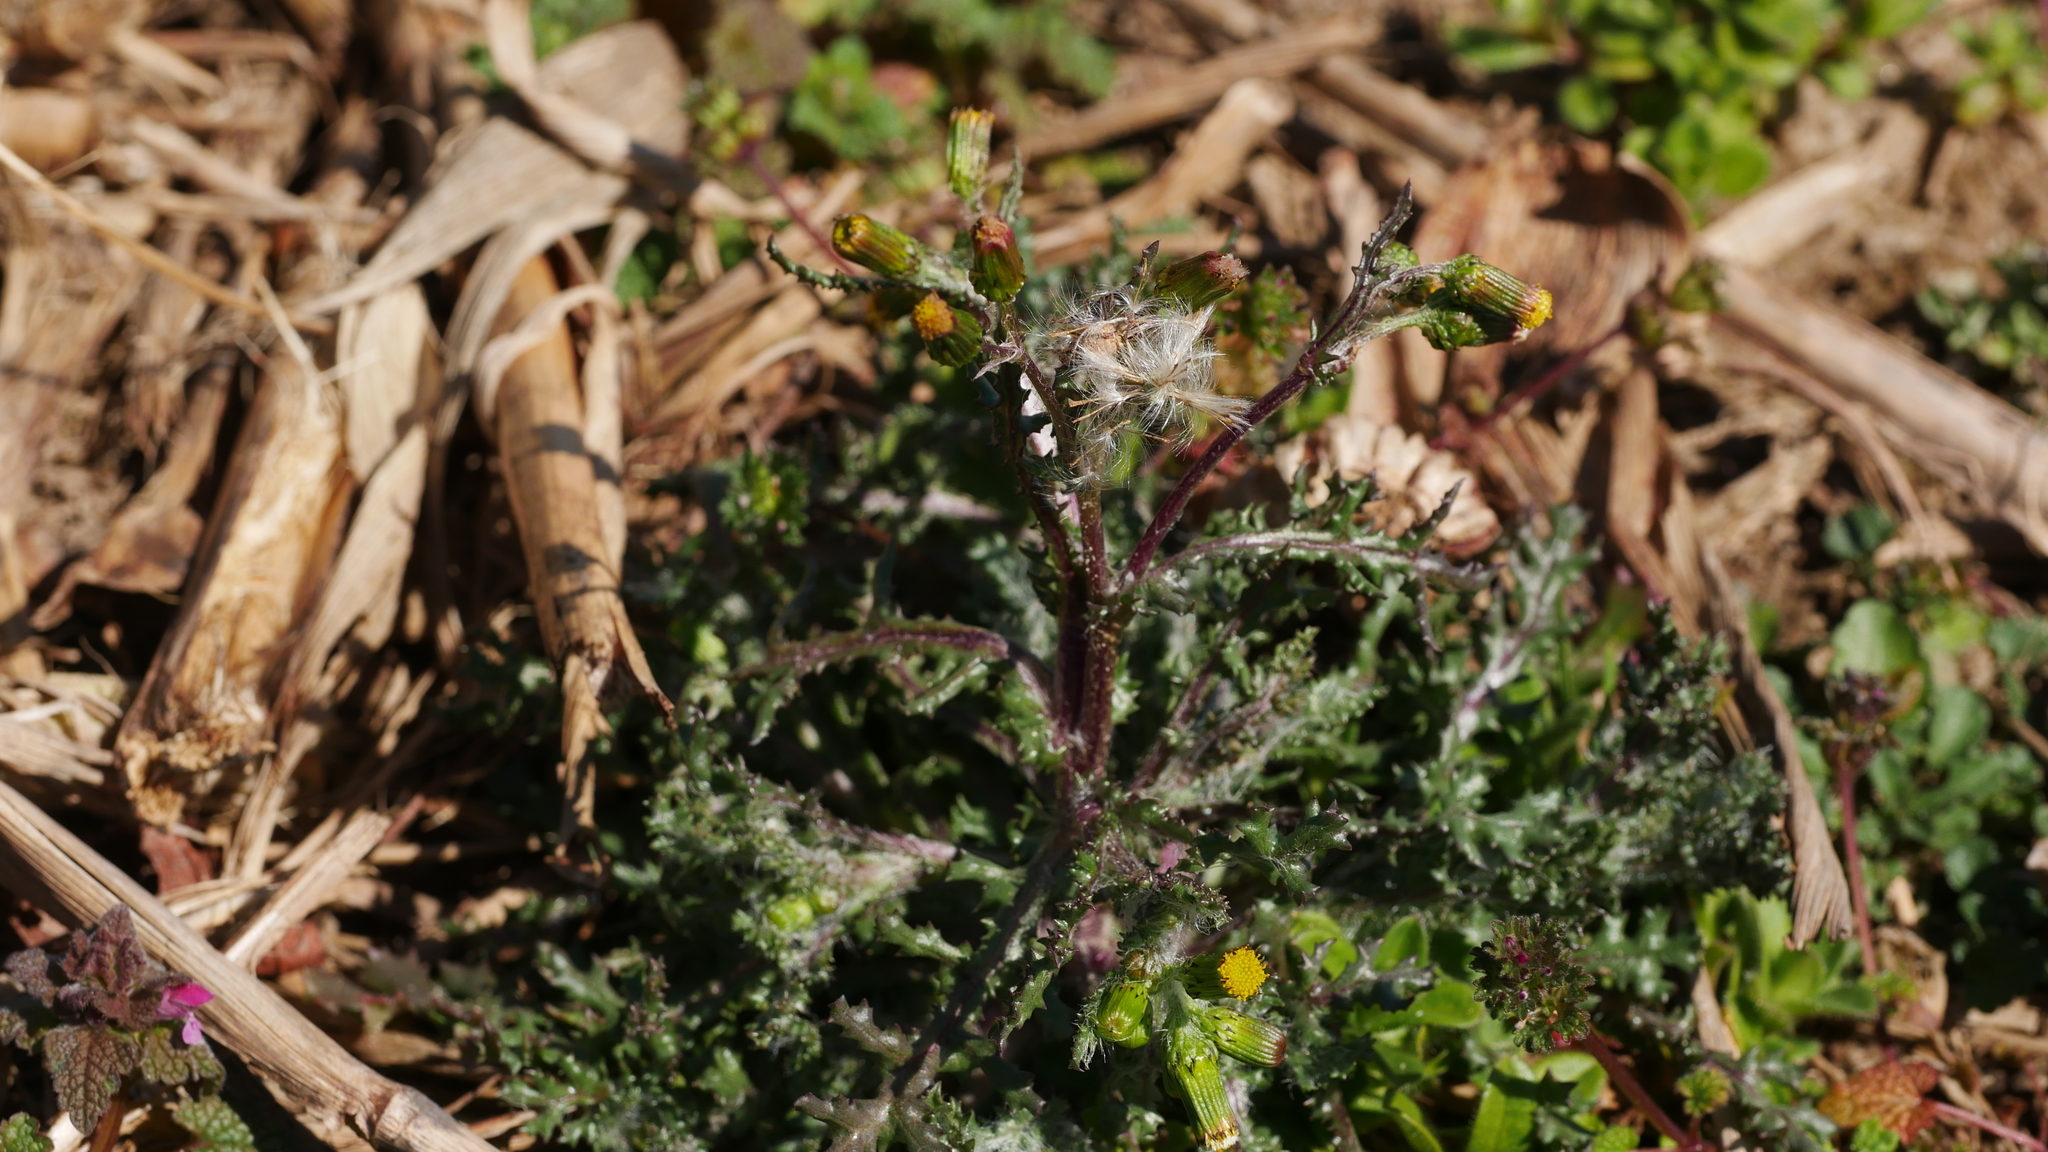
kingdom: Plantae
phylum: Tracheophyta
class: Magnoliopsida
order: Asterales
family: Asteraceae
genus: Senecio
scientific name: Senecio vulgaris
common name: Old-man-in-the-spring
